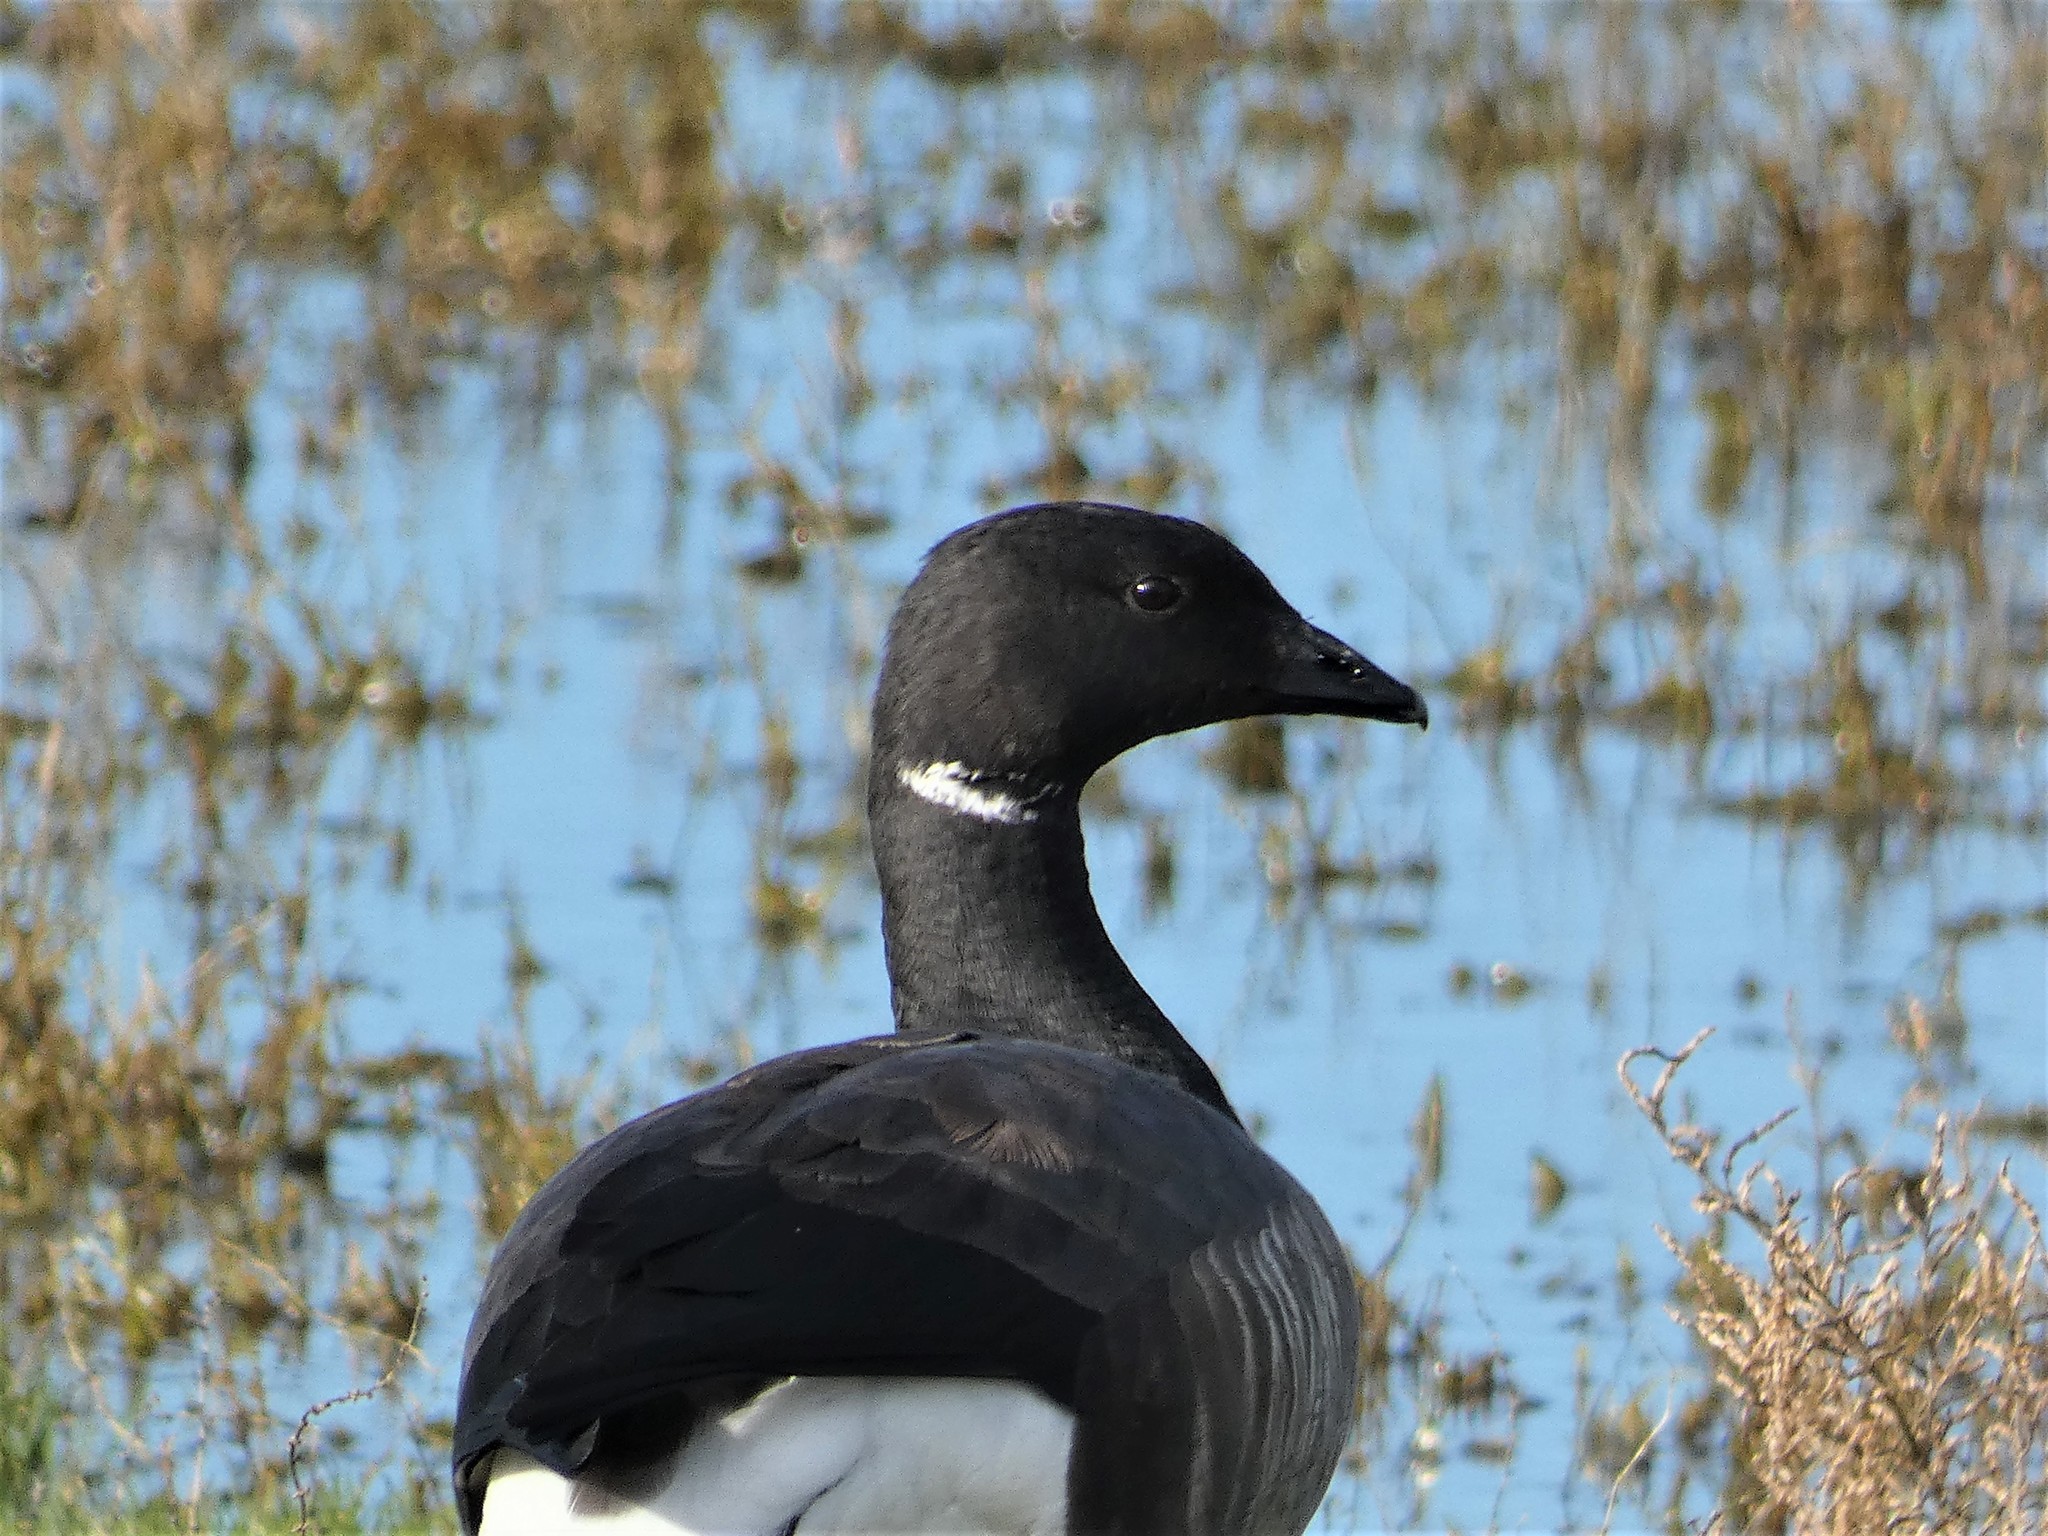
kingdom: Animalia
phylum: Chordata
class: Aves
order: Anseriformes
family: Anatidae
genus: Branta
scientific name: Branta bernicla
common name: Brant goose
